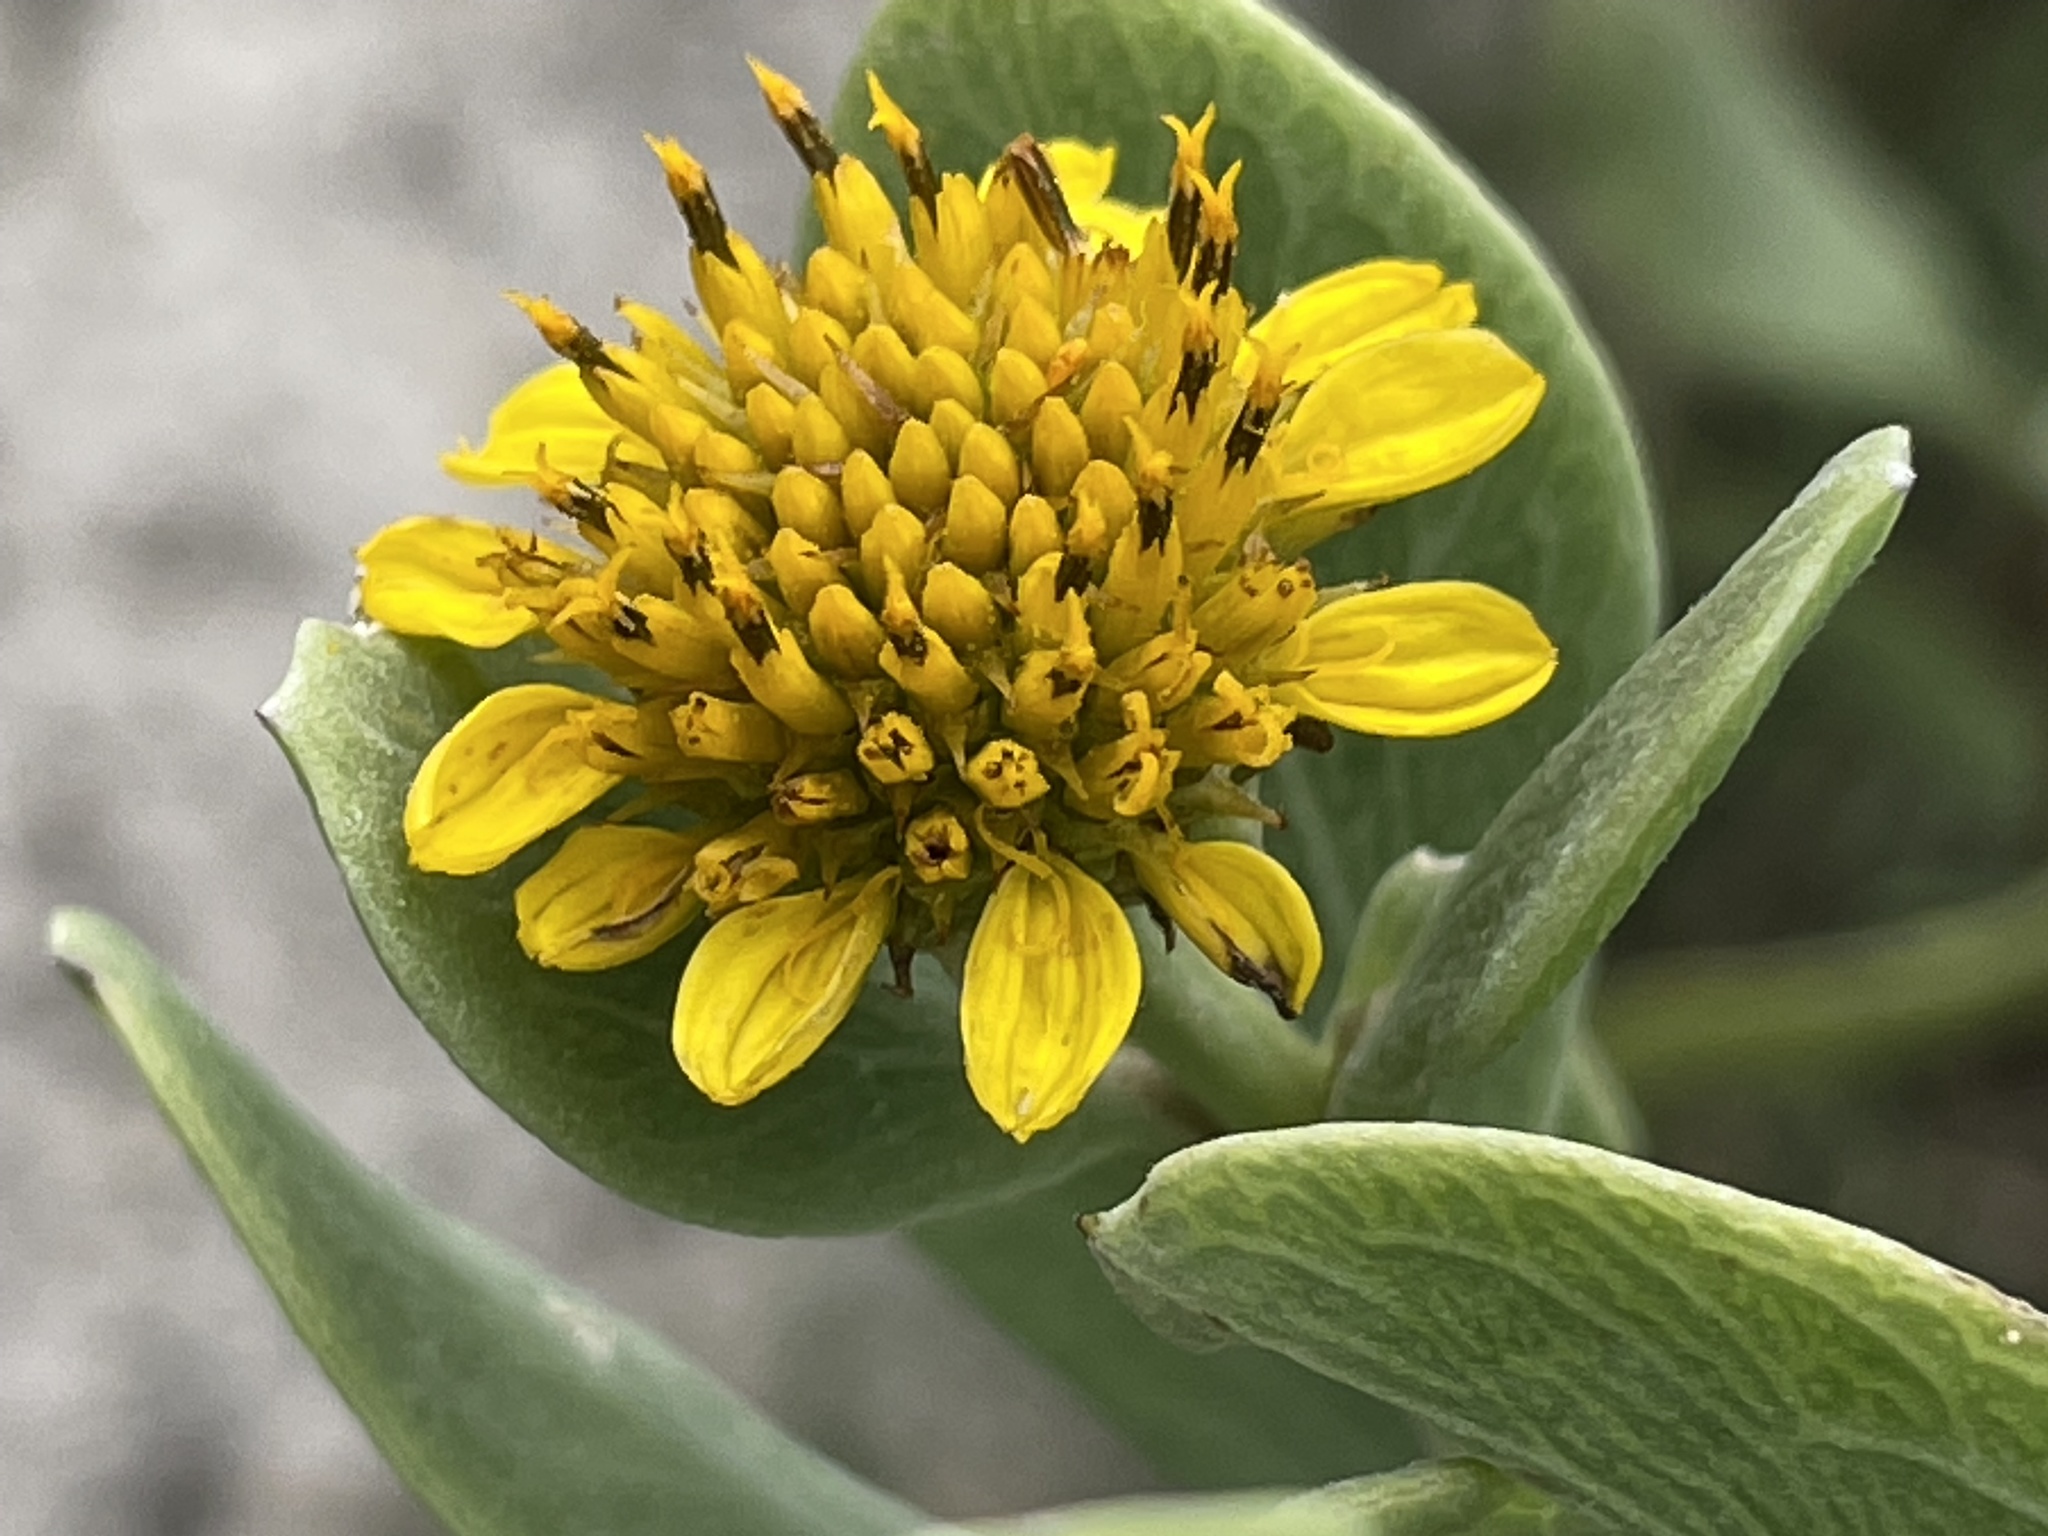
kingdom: Plantae
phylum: Tracheophyta
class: Magnoliopsida
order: Asterales
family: Asteraceae
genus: Borrichia
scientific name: Borrichia frutescens
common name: Sea oxeye
